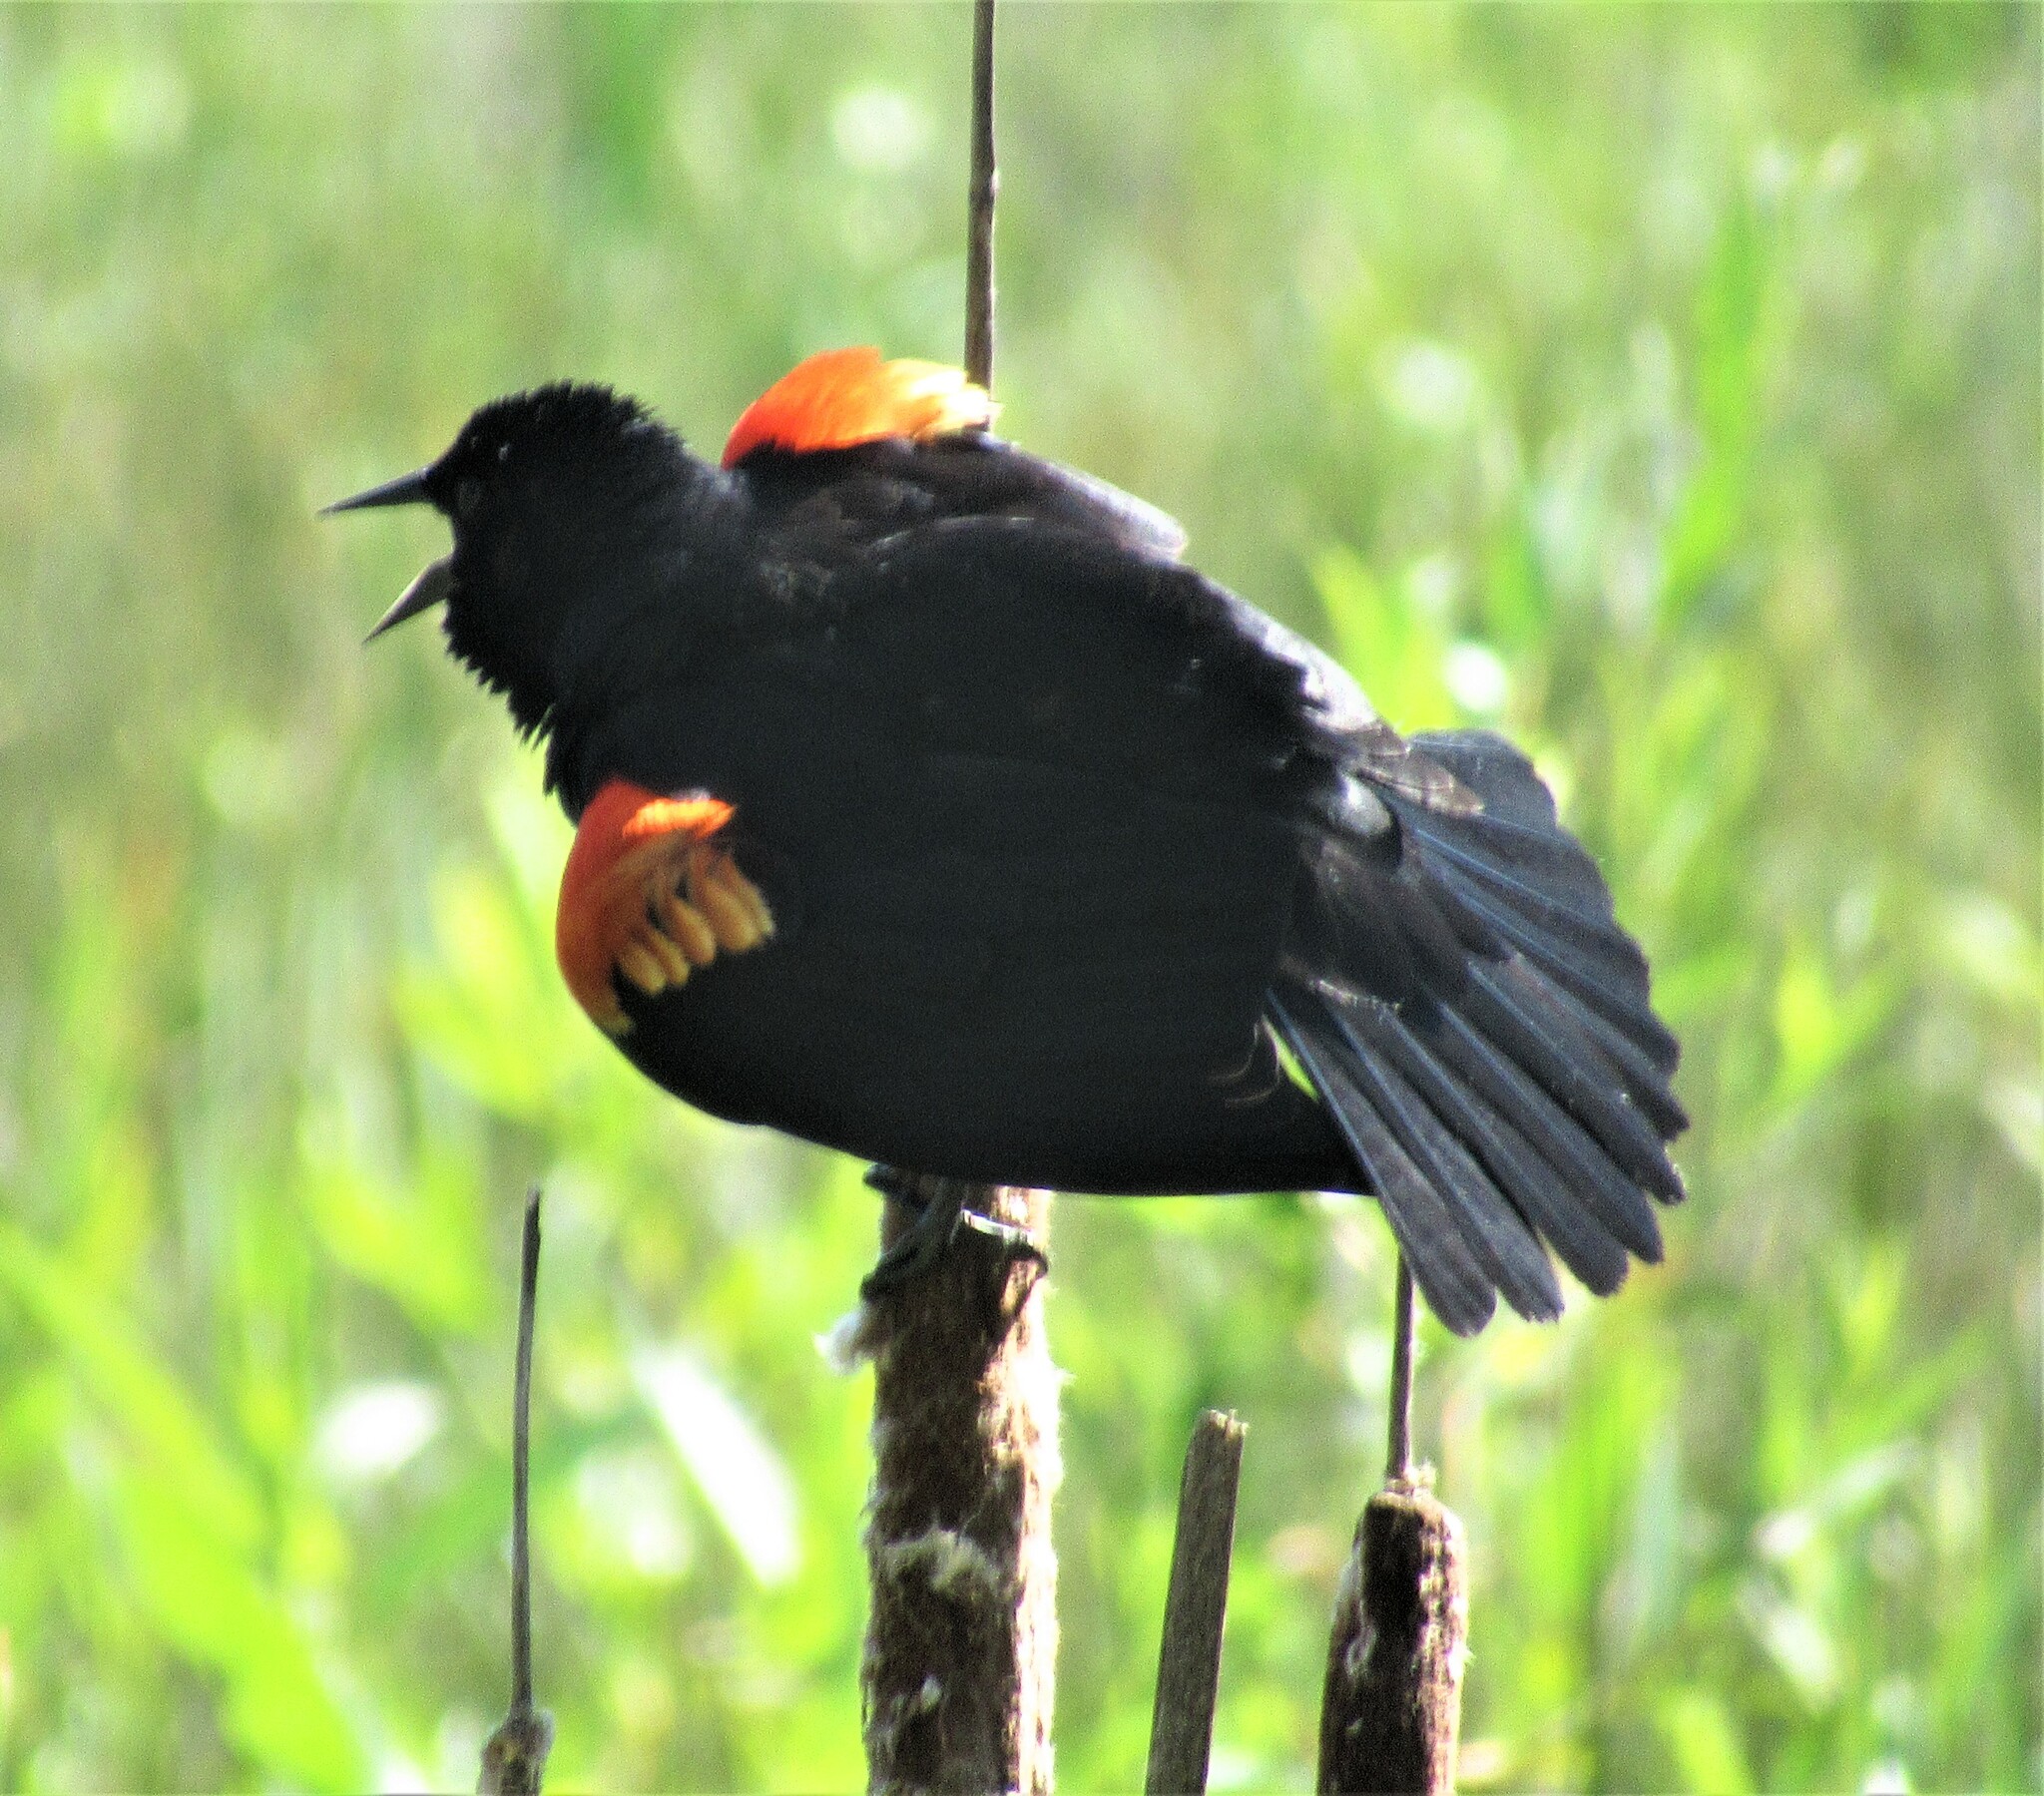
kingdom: Animalia
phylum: Chordata
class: Aves
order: Passeriformes
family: Icteridae
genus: Agelaius
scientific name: Agelaius phoeniceus
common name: Red-winged blackbird
